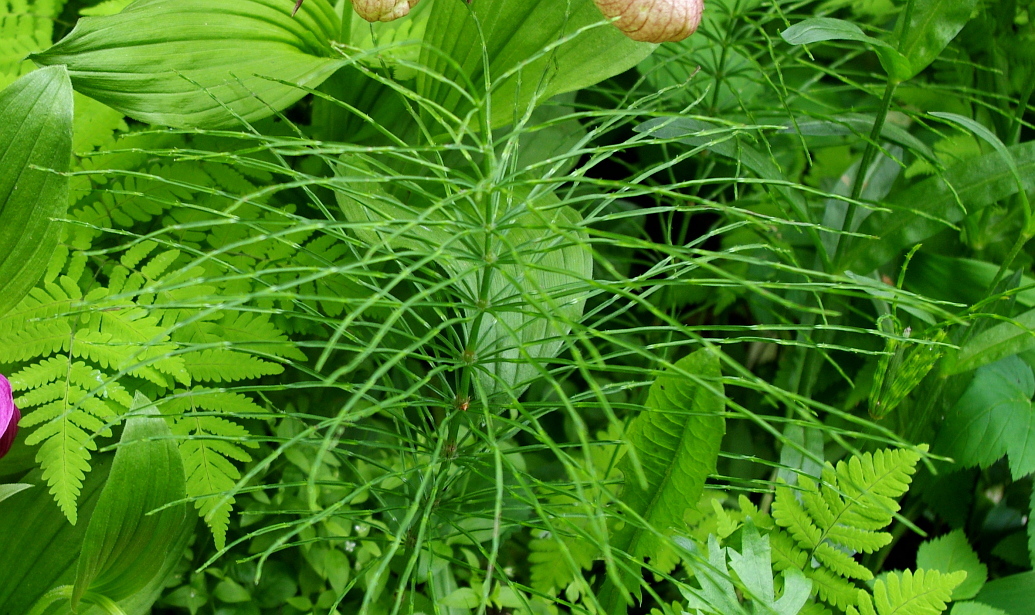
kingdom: Plantae
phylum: Tracheophyta
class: Polypodiopsida
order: Equisetales
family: Equisetaceae
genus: Equisetum
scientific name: Equisetum arvense
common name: Field horsetail
